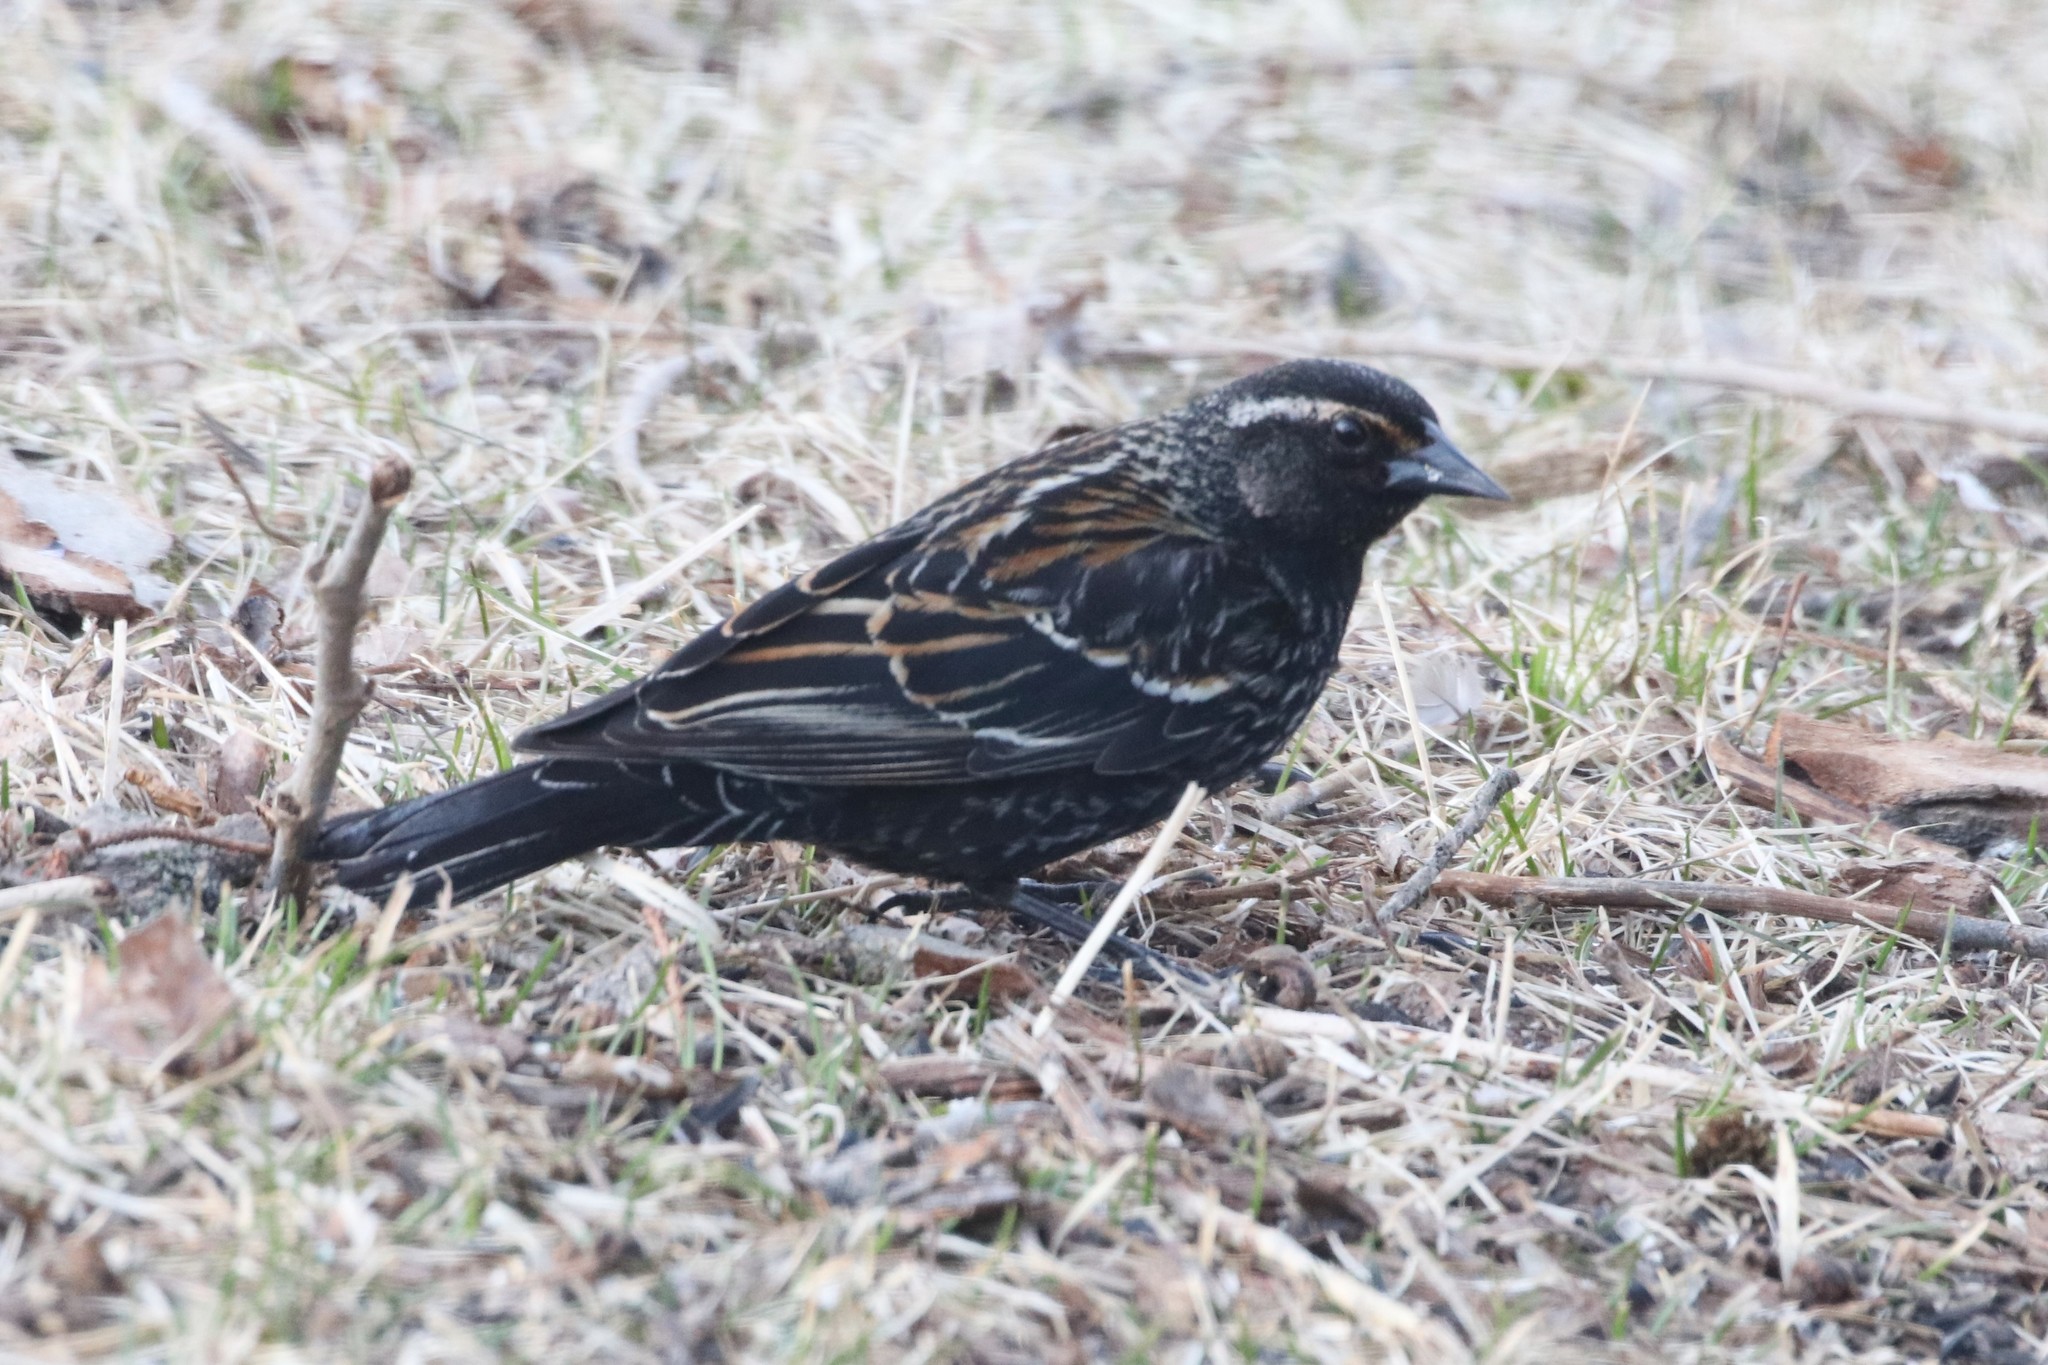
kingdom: Animalia
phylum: Chordata
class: Aves
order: Passeriformes
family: Icteridae
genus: Agelaius
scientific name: Agelaius phoeniceus
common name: Red-winged blackbird
